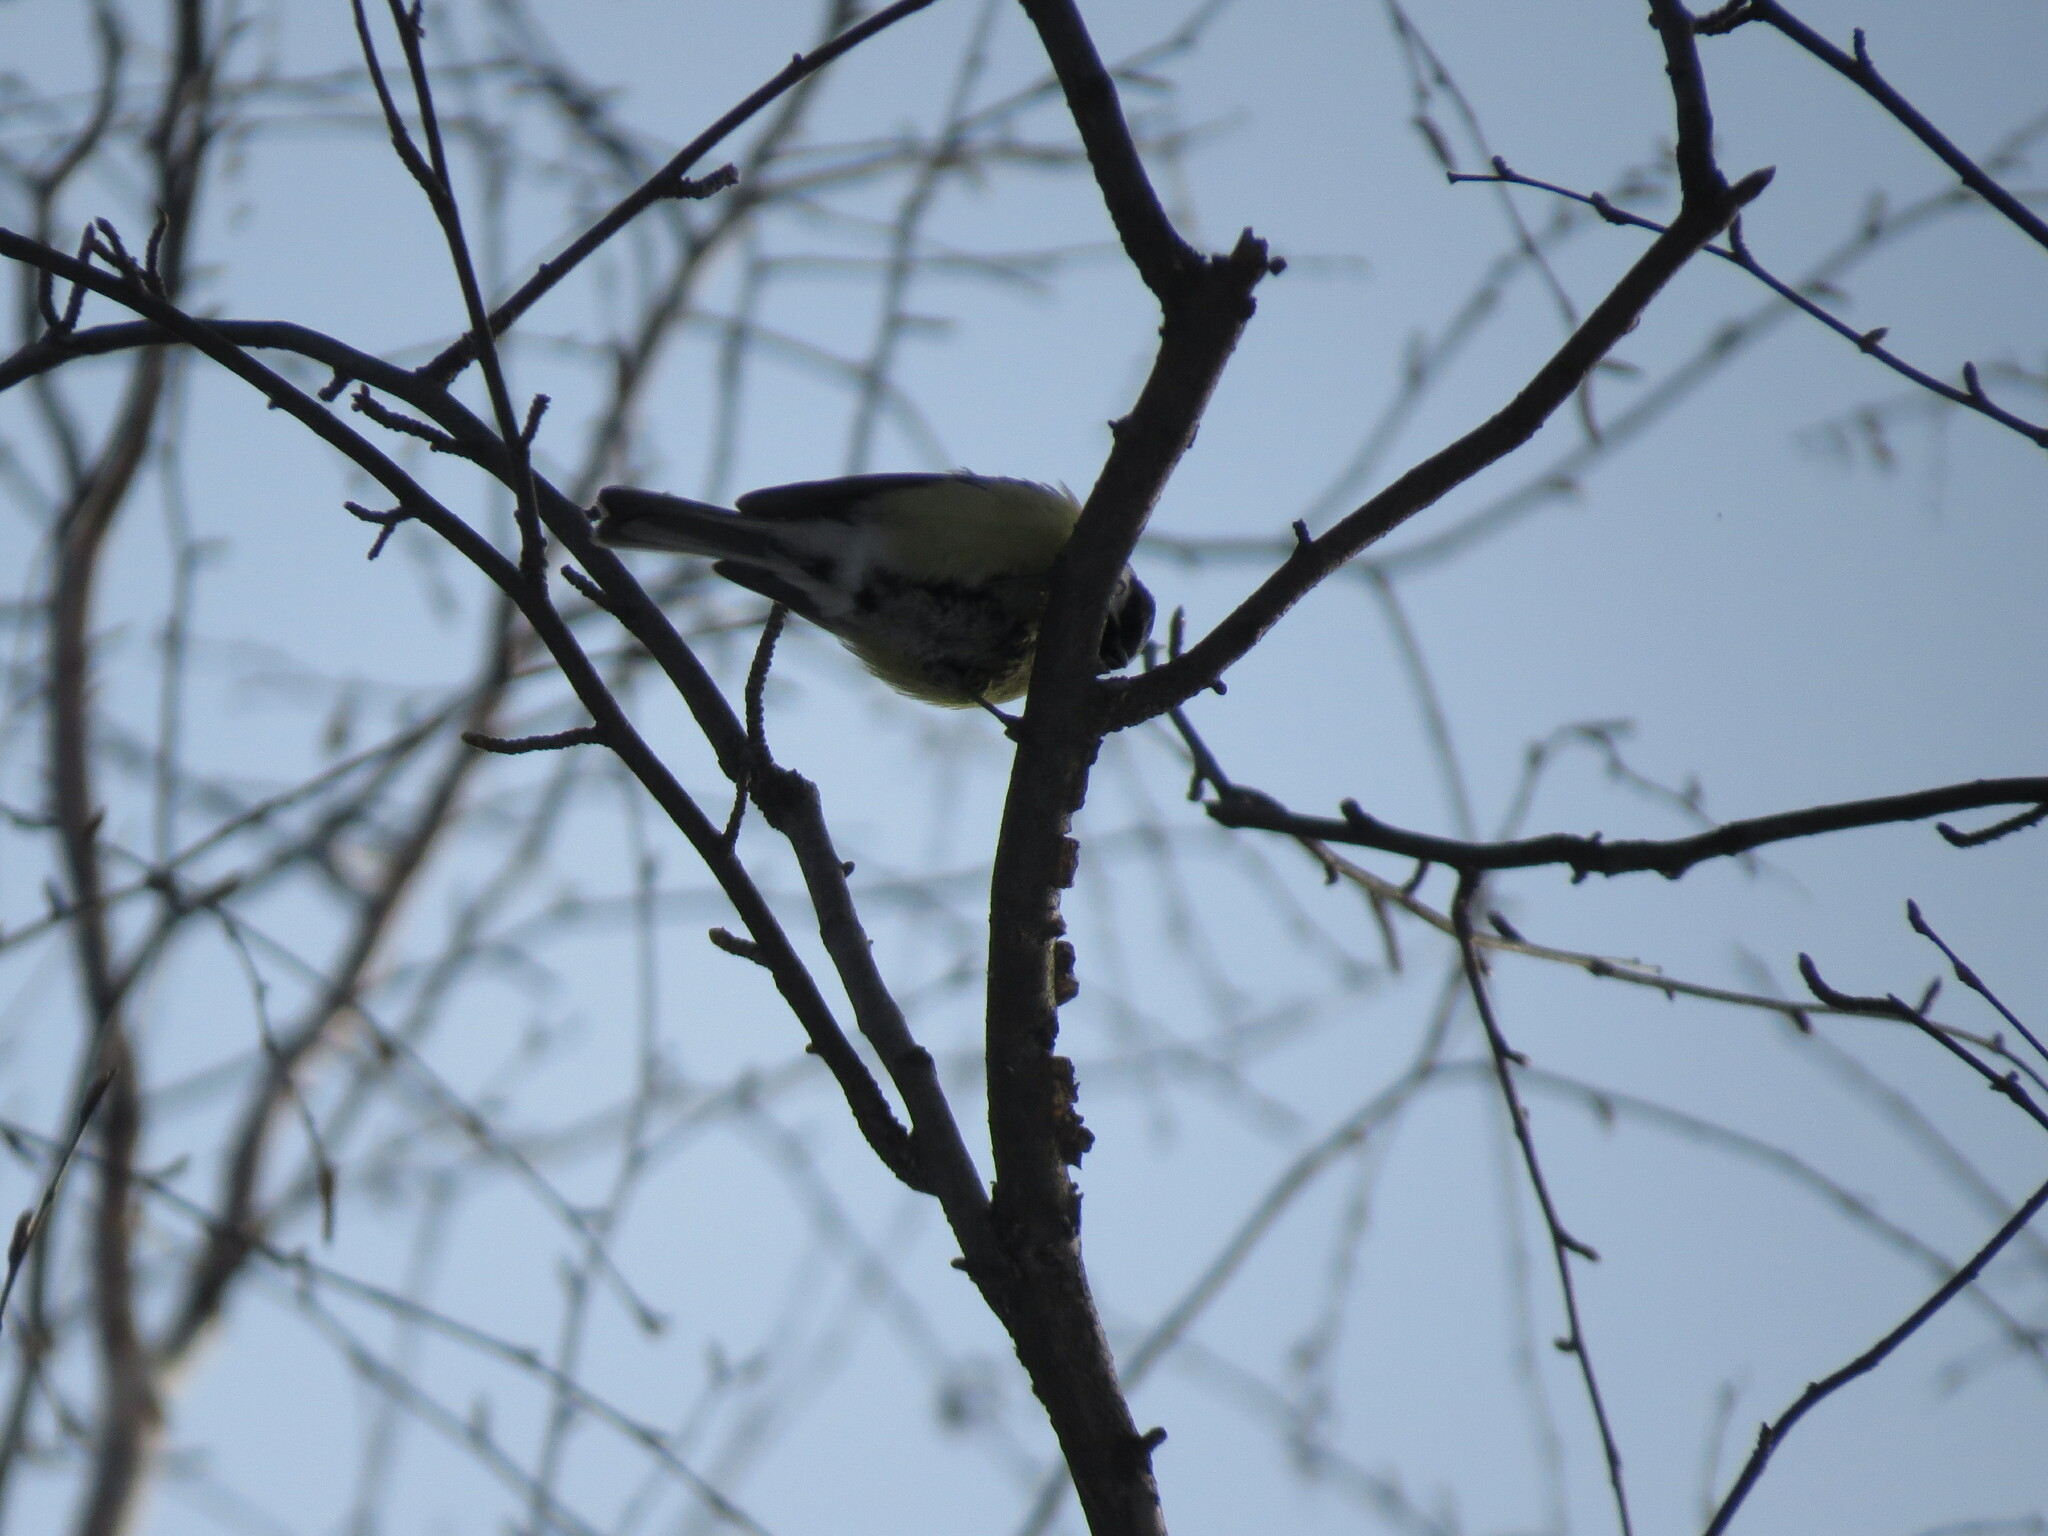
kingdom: Animalia
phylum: Chordata
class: Aves
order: Passeriformes
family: Paridae
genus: Parus
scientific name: Parus major
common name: Great tit
